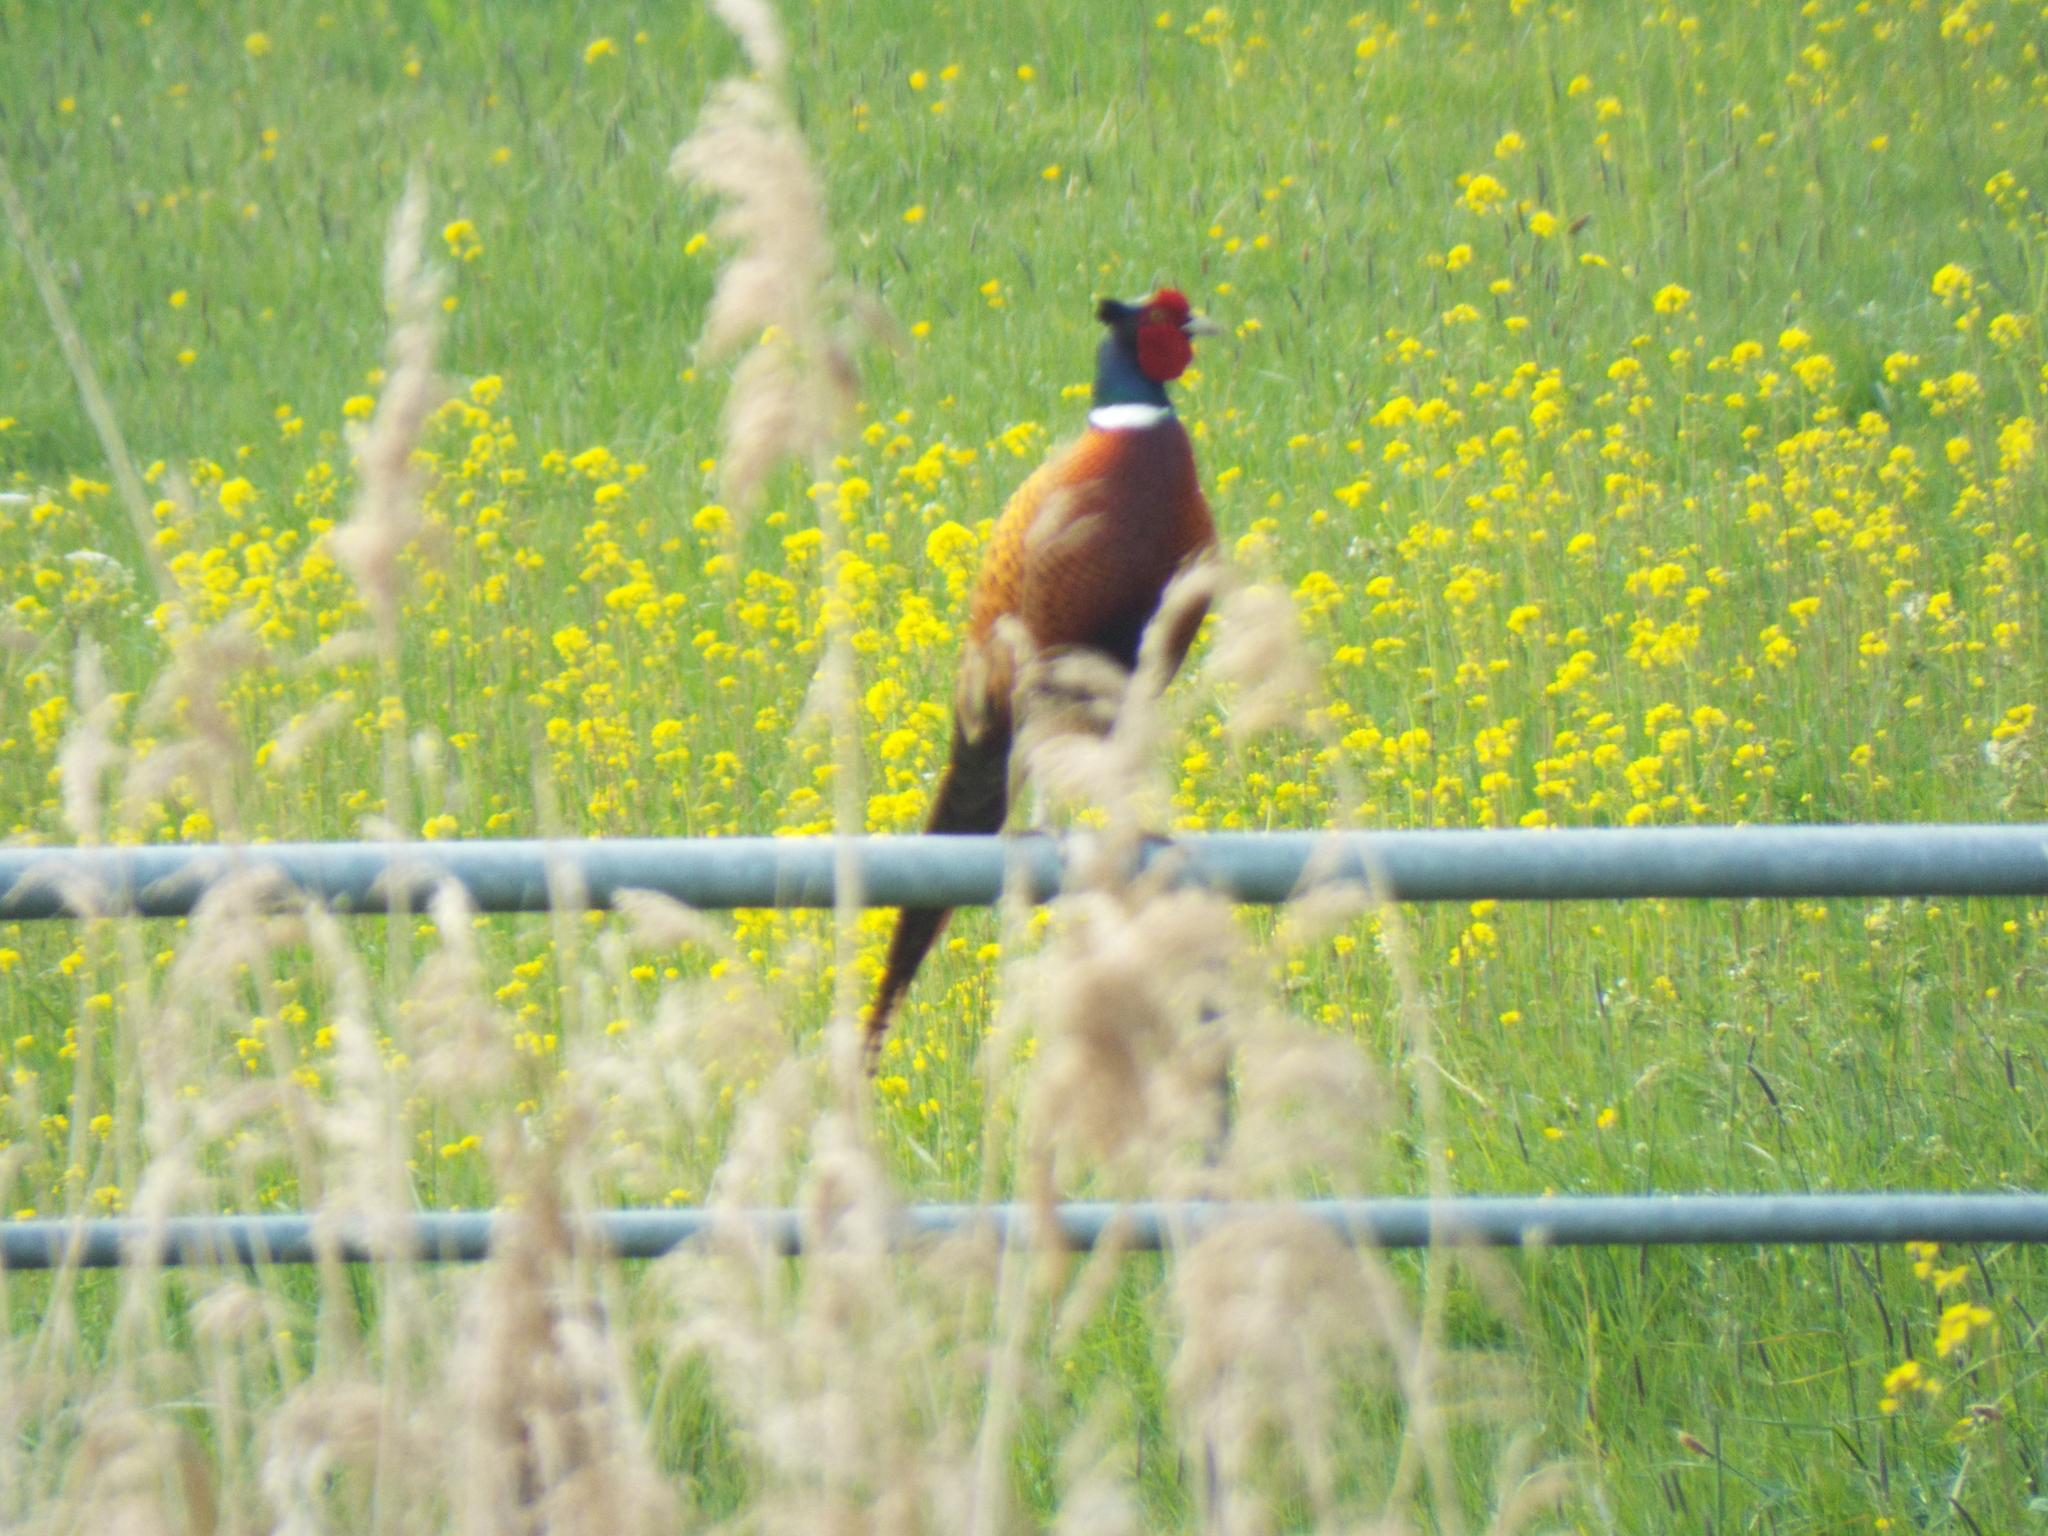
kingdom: Animalia
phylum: Chordata
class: Aves
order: Galliformes
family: Phasianidae
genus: Phasianus
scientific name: Phasianus colchicus
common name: Common pheasant
